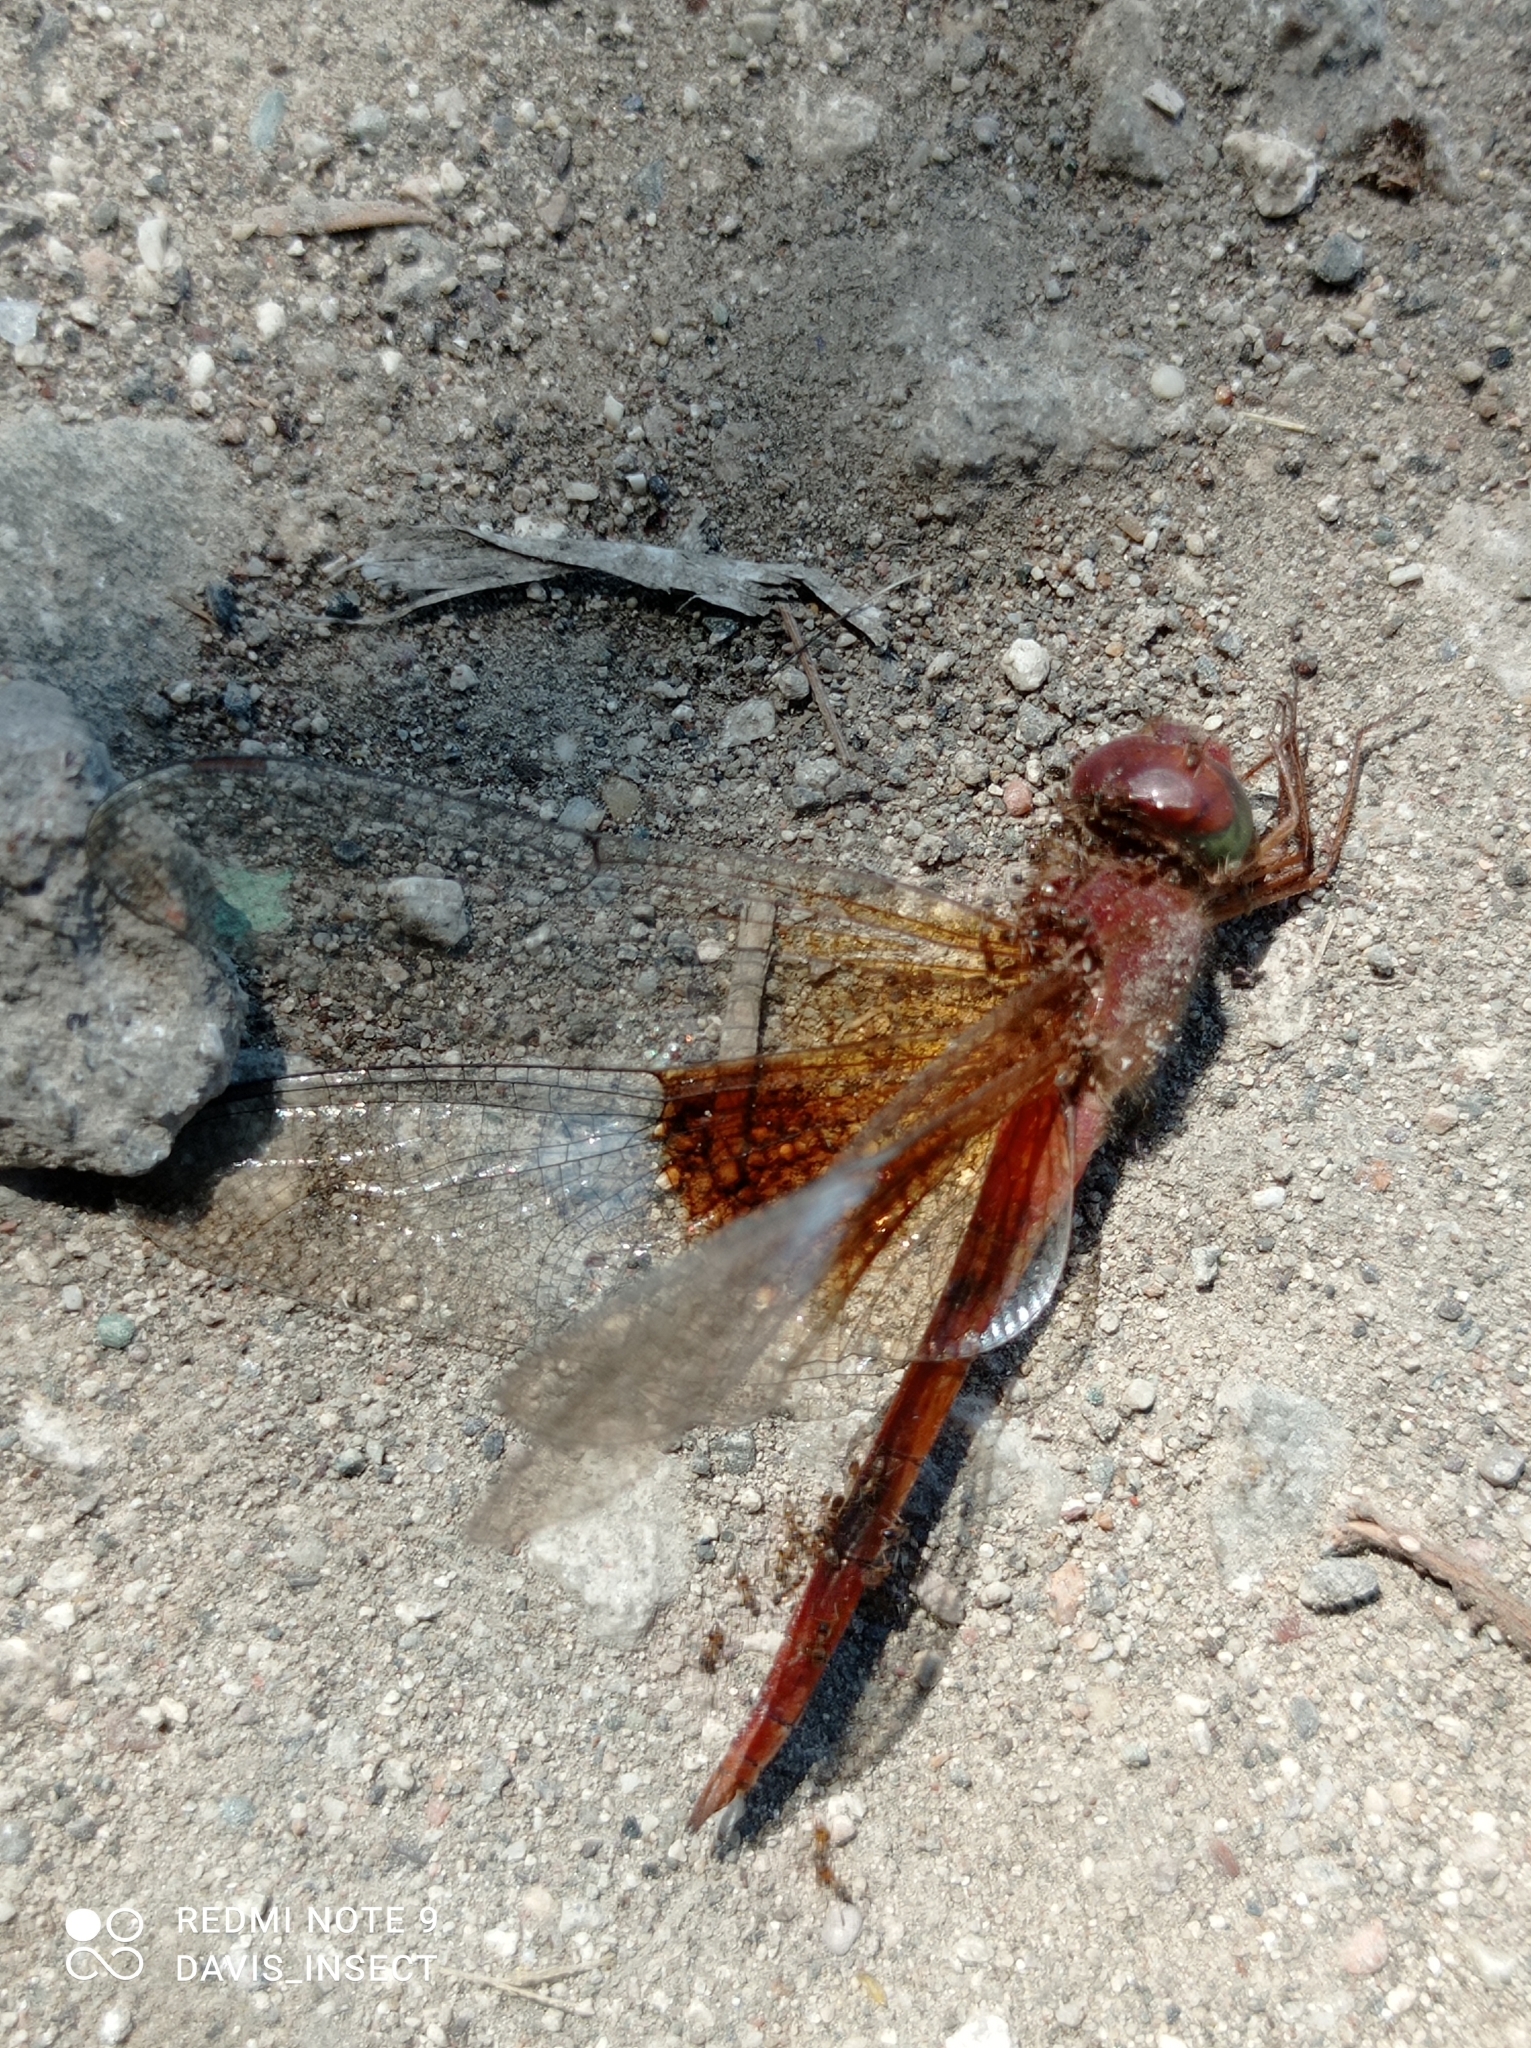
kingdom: Animalia
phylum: Arthropoda
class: Insecta
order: Odonata
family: Libellulidae
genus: Tholymis
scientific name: Tholymis tillarga
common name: Coral-tailed cloud wing
